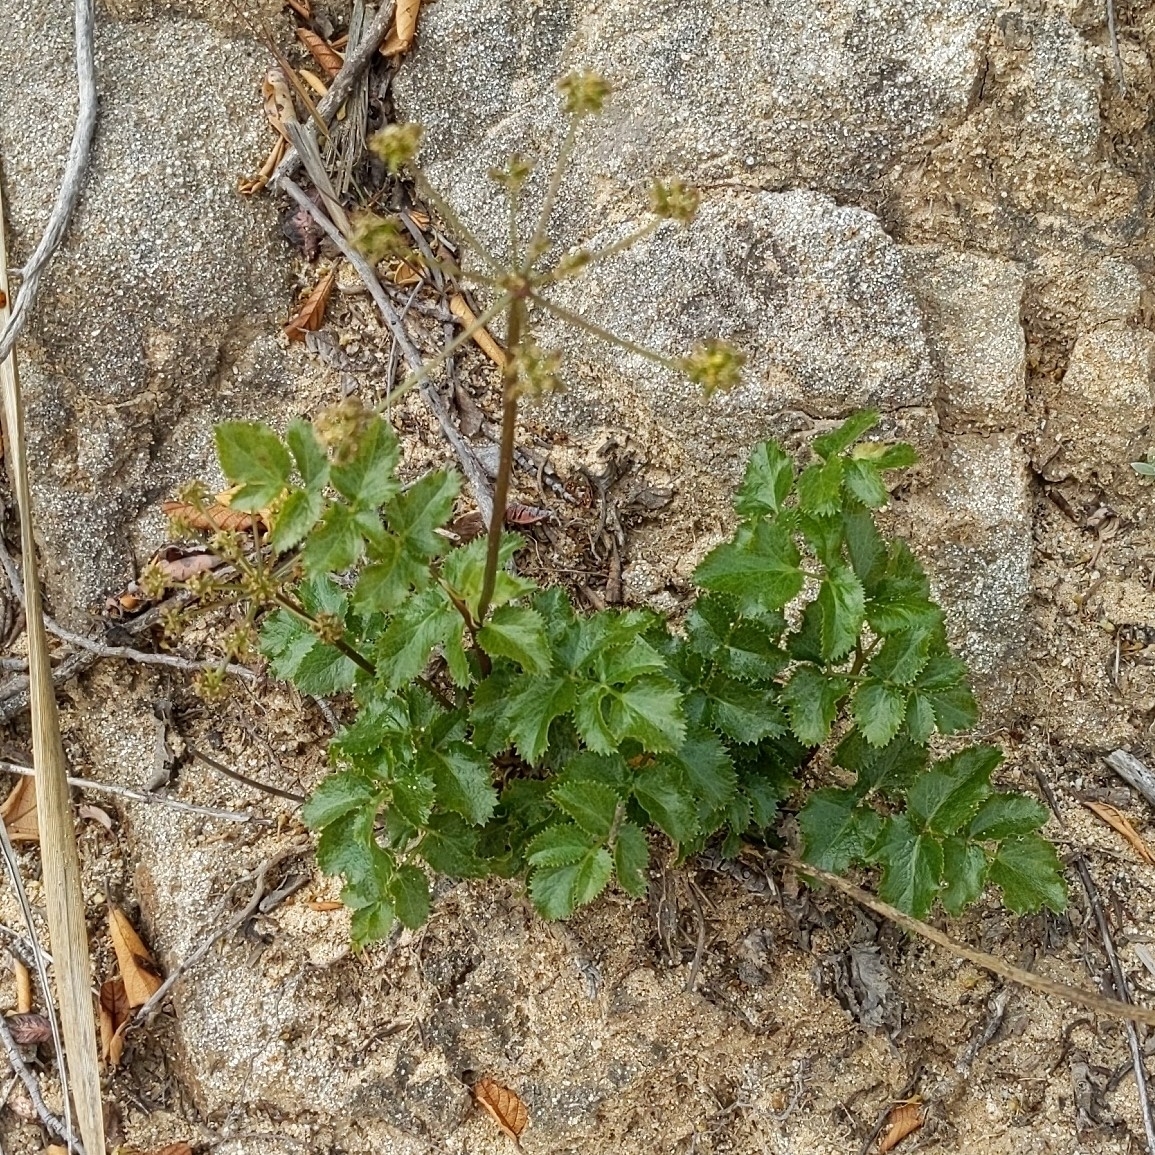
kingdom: Plantae
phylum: Tracheophyta
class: Magnoliopsida
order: Apiales
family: Apiaceae
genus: Tauschia
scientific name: Tauschia arguta
